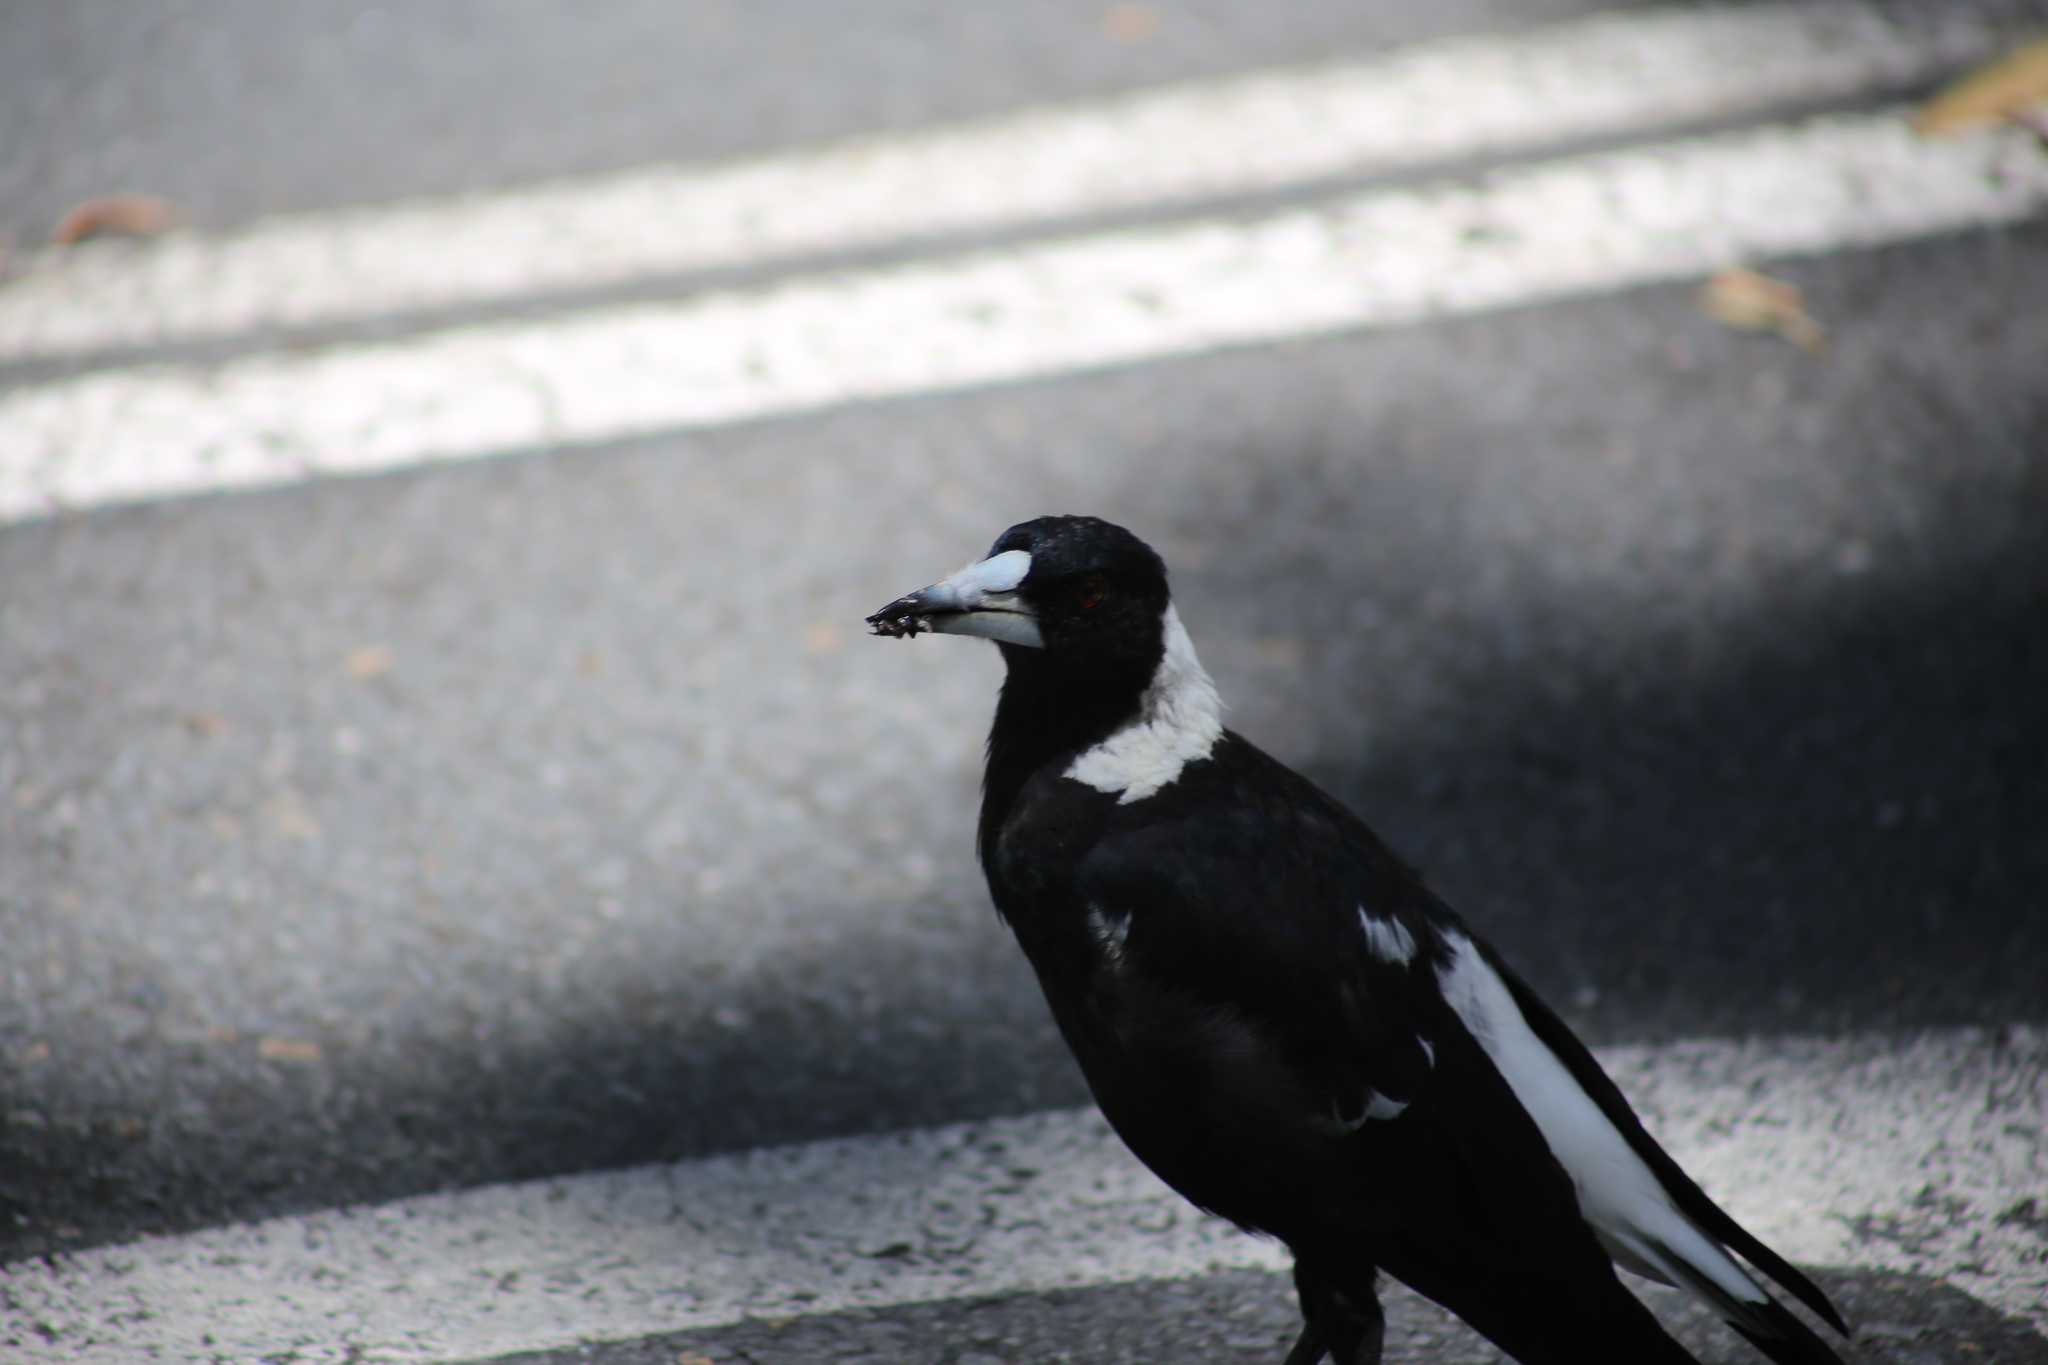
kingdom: Animalia
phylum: Chordata
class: Aves
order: Passeriformes
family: Cracticidae
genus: Gymnorhina
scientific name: Gymnorhina tibicen
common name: Australian magpie
